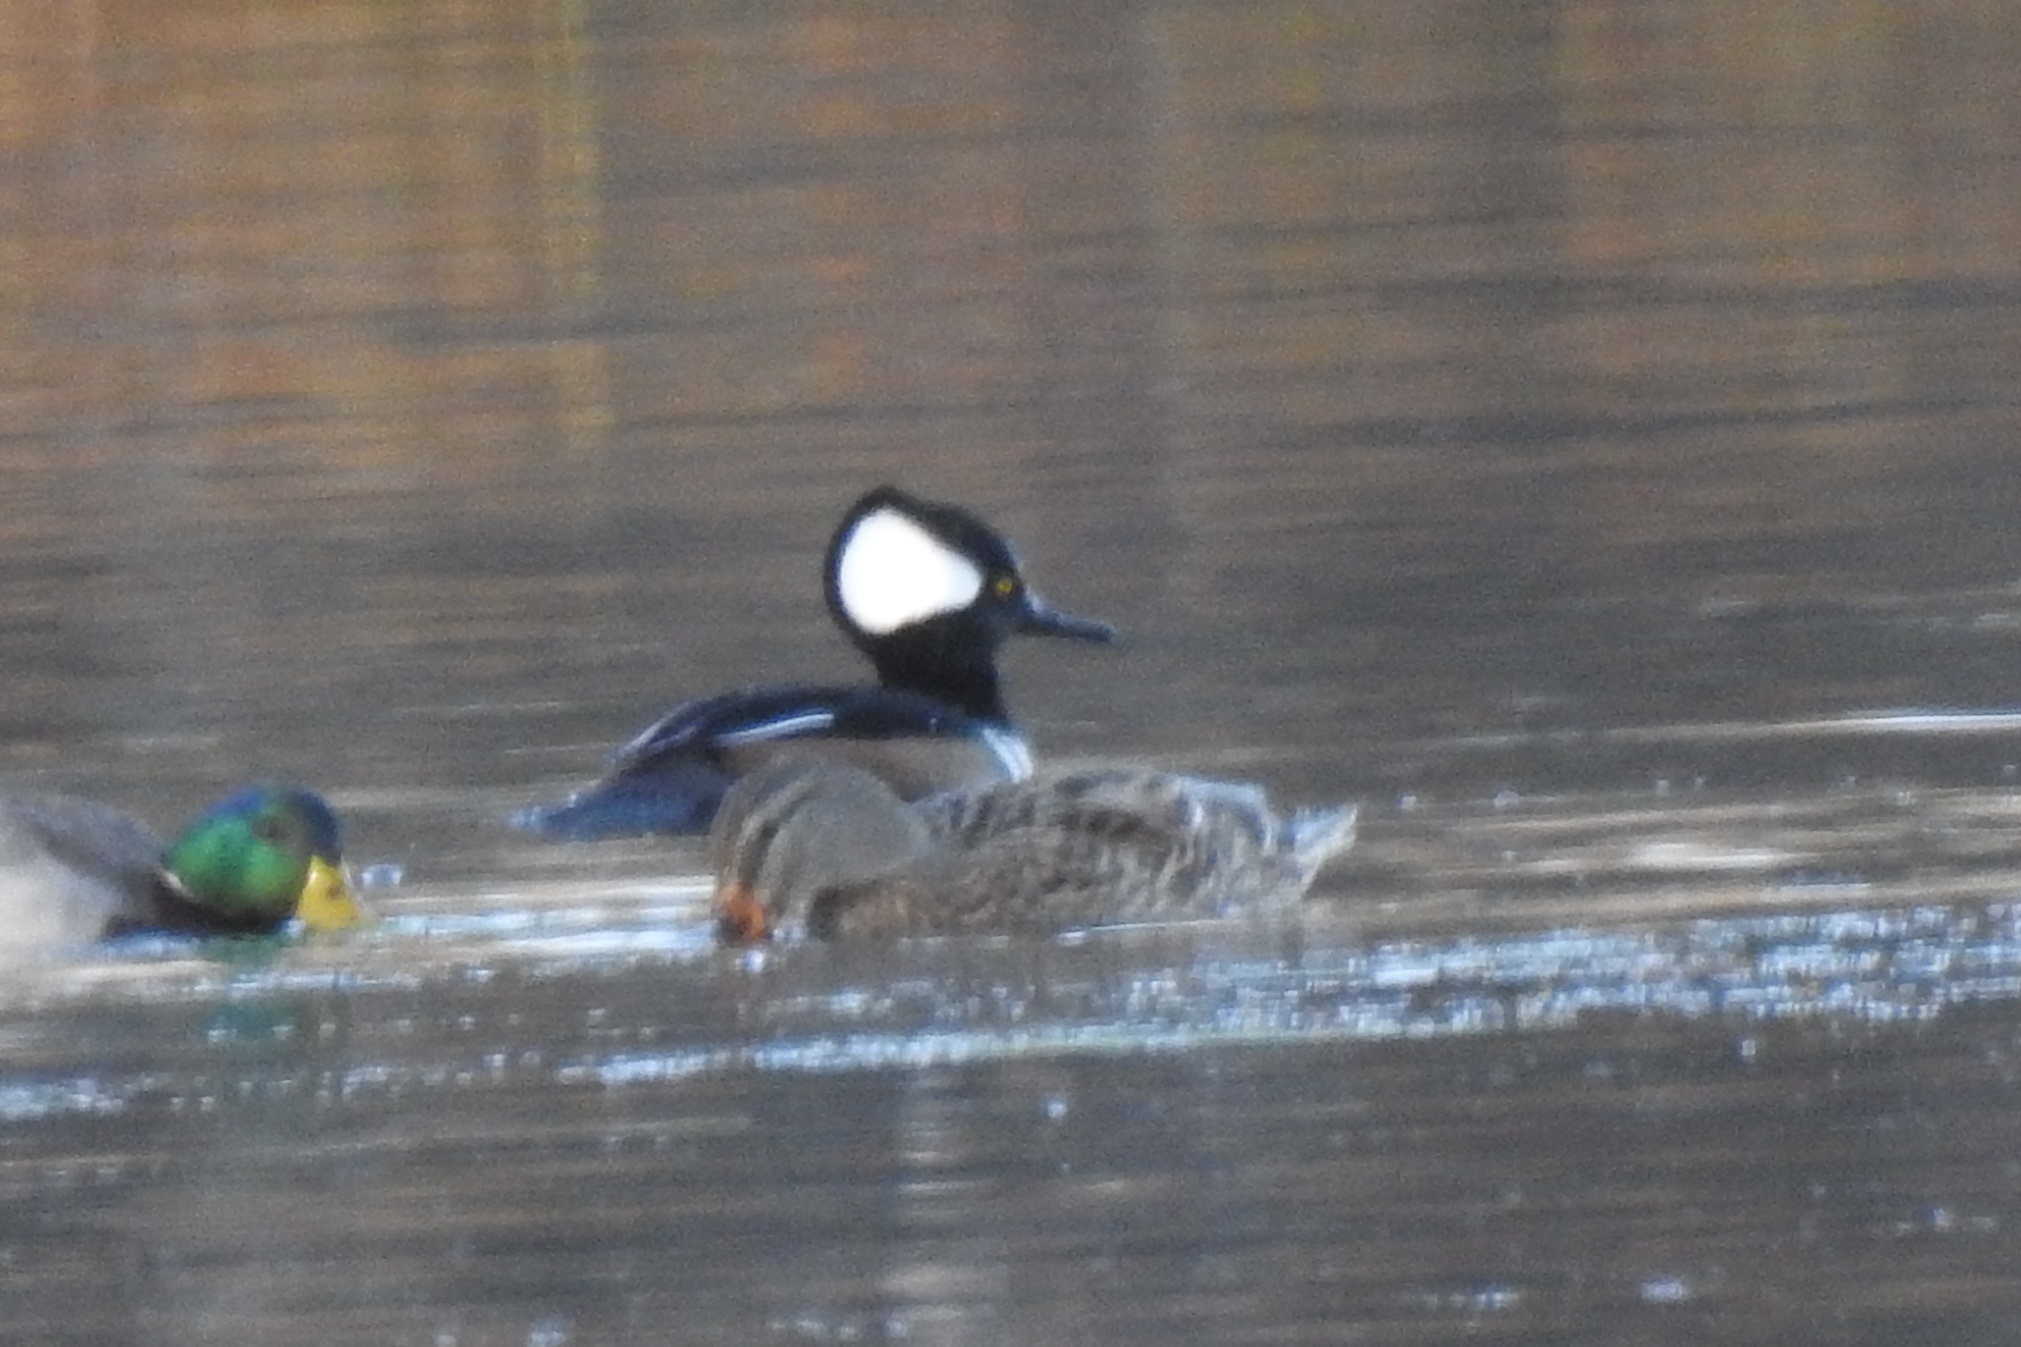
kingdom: Animalia
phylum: Chordata
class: Aves
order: Anseriformes
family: Anatidae
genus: Lophodytes
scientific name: Lophodytes cucullatus
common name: Hooded merganser
